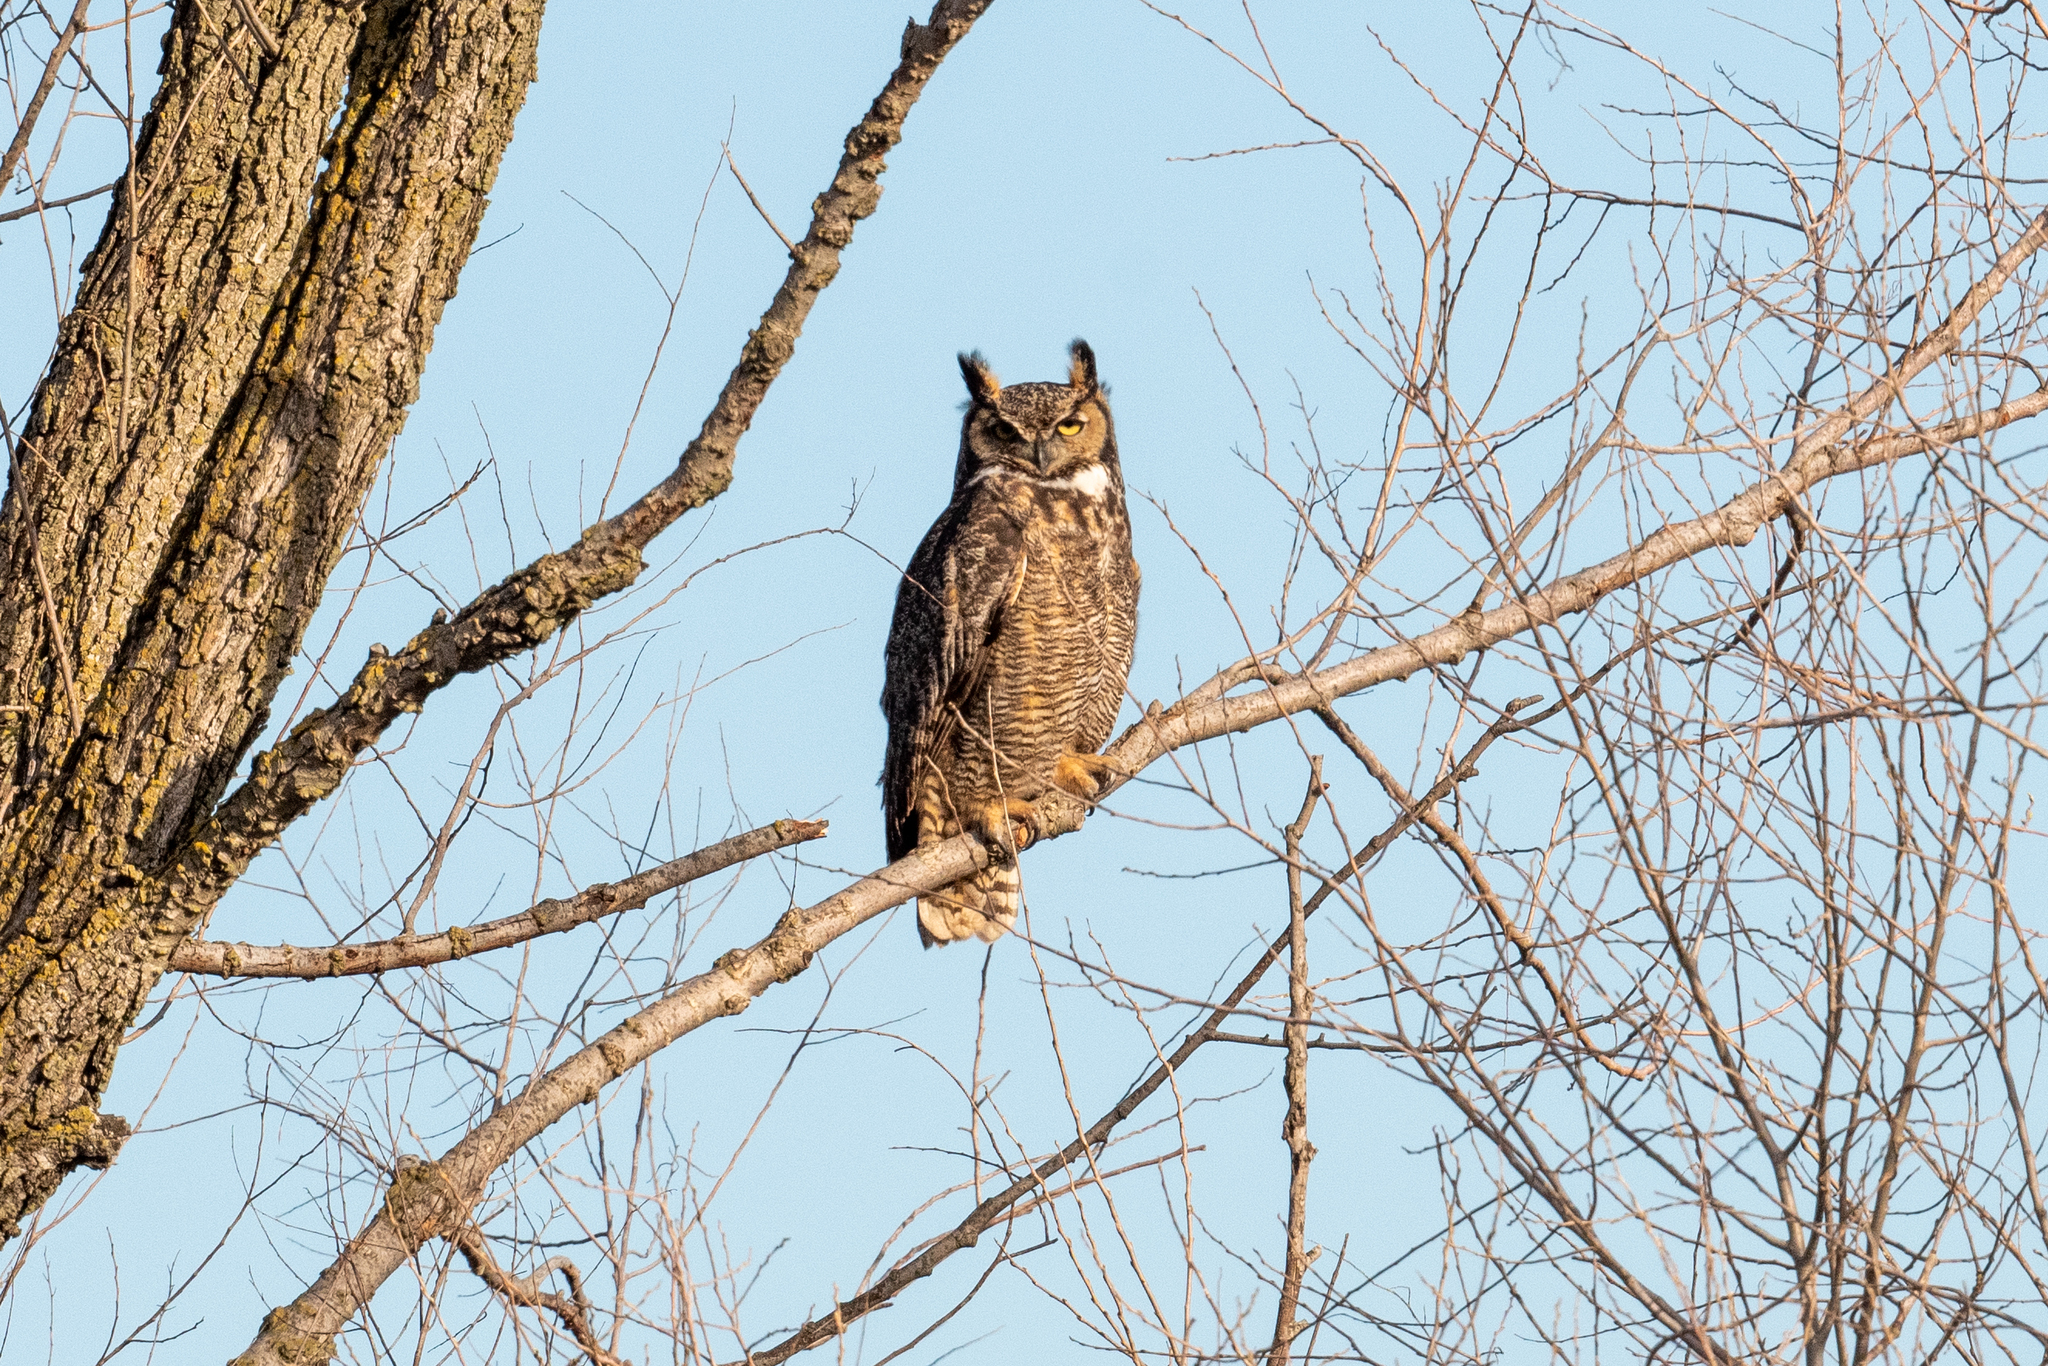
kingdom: Animalia
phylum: Chordata
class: Aves
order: Strigiformes
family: Strigidae
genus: Bubo
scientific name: Bubo virginianus
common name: Great horned owl
